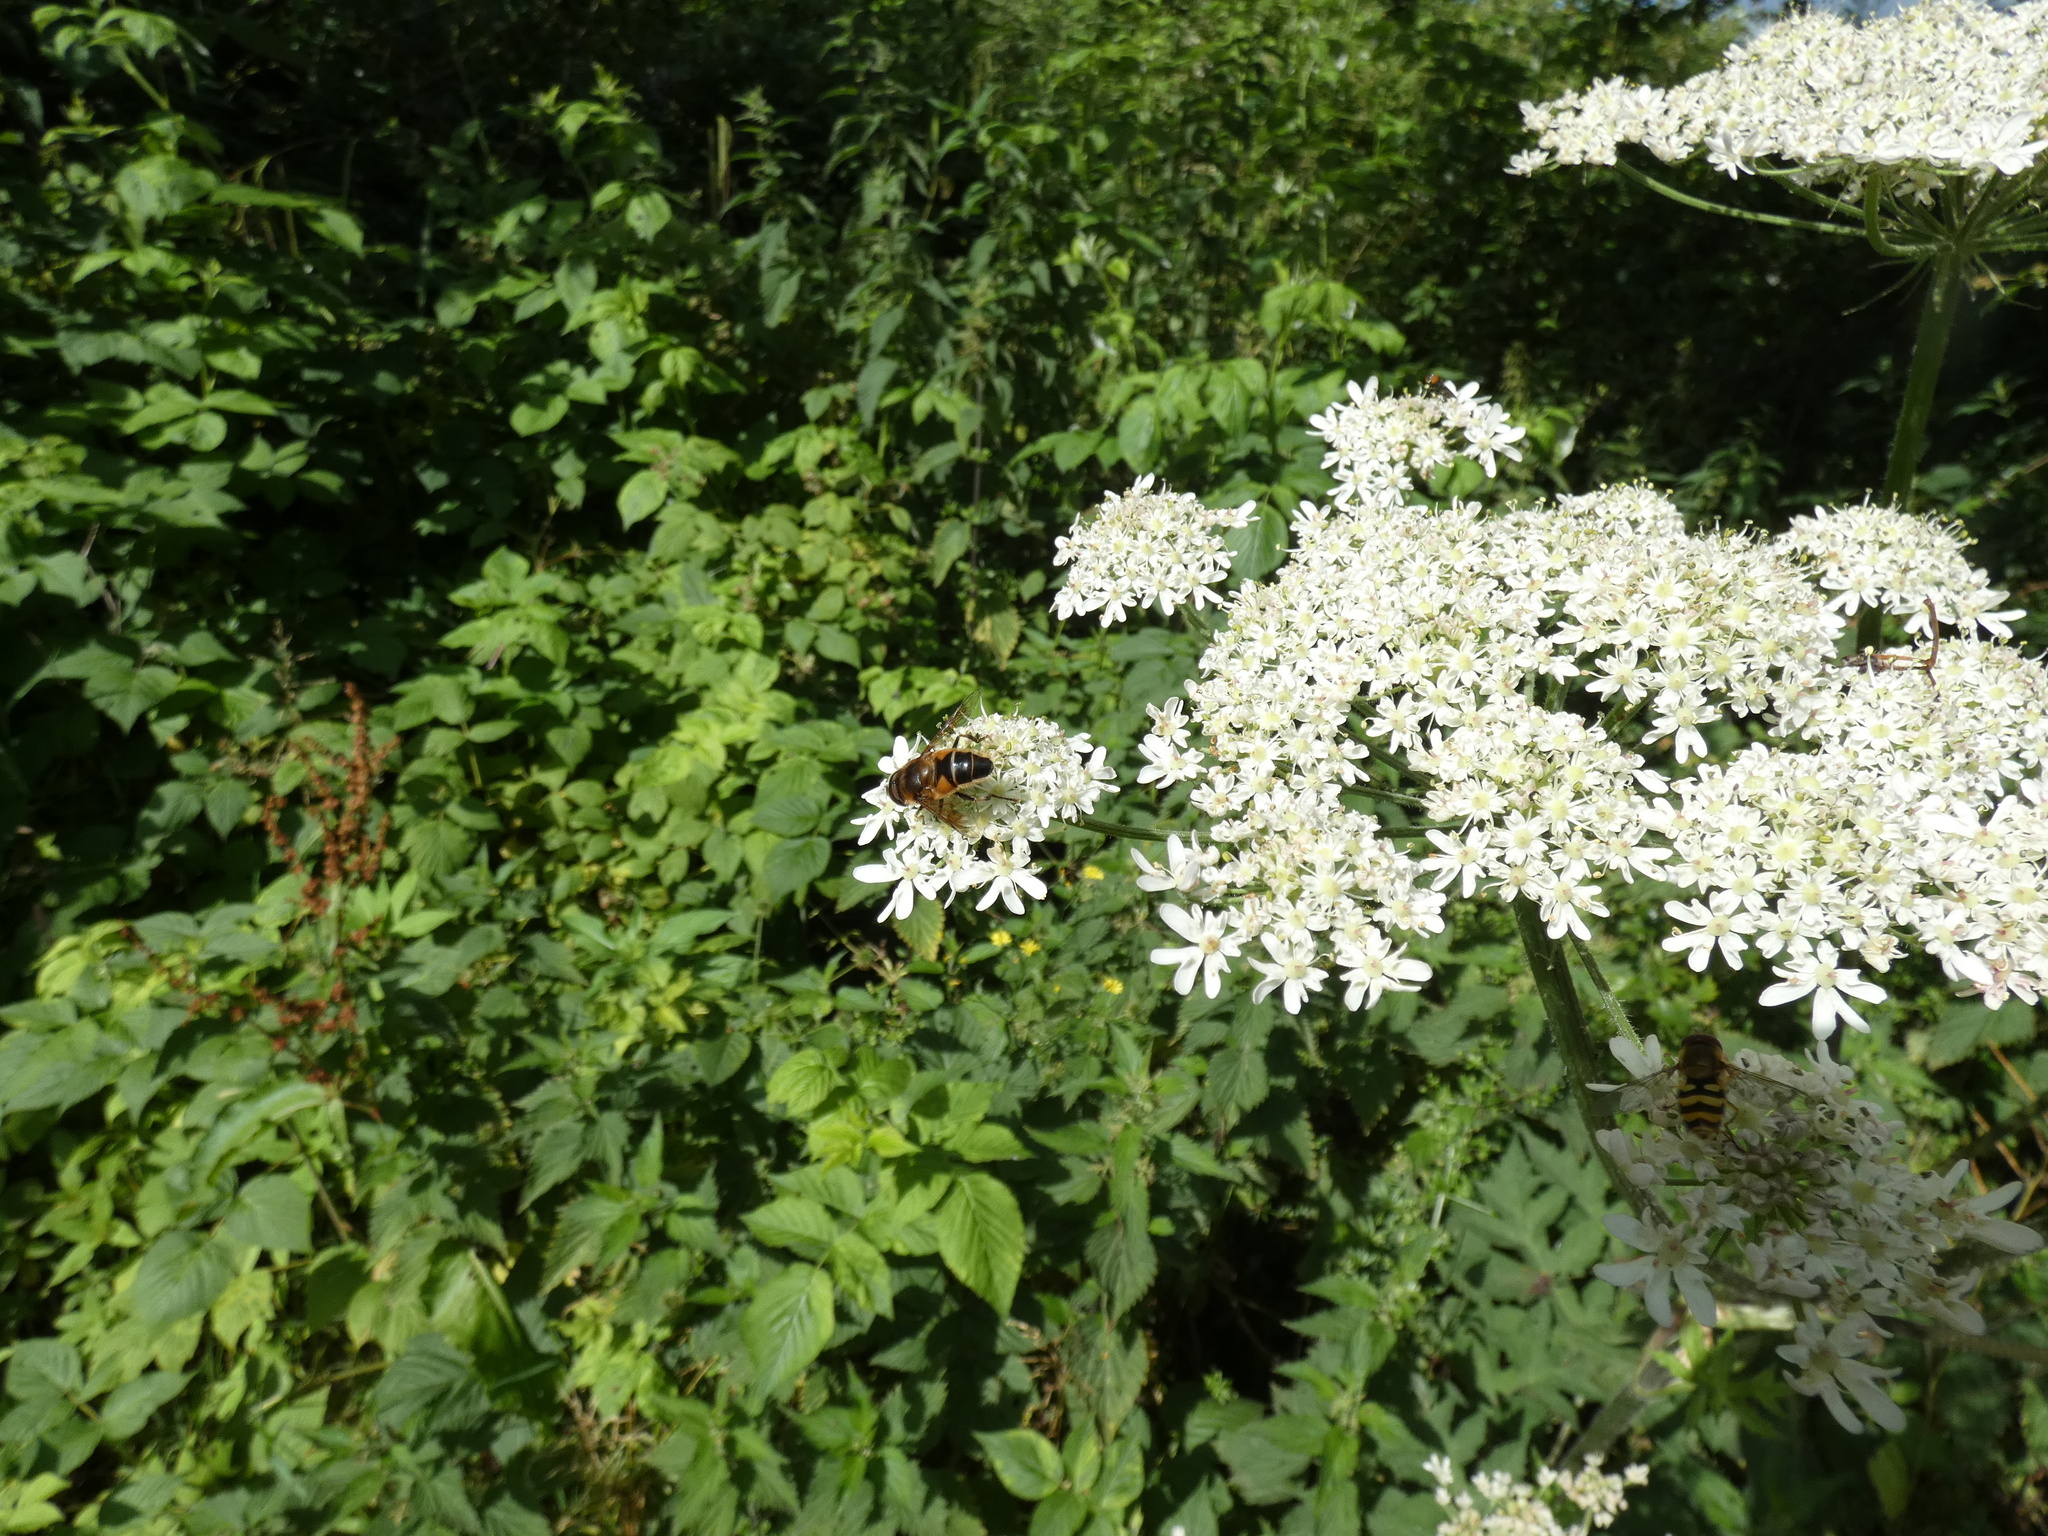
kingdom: Animalia
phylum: Arthropoda
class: Insecta
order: Diptera
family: Syrphidae
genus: Eristalis
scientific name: Eristalis pertinax
